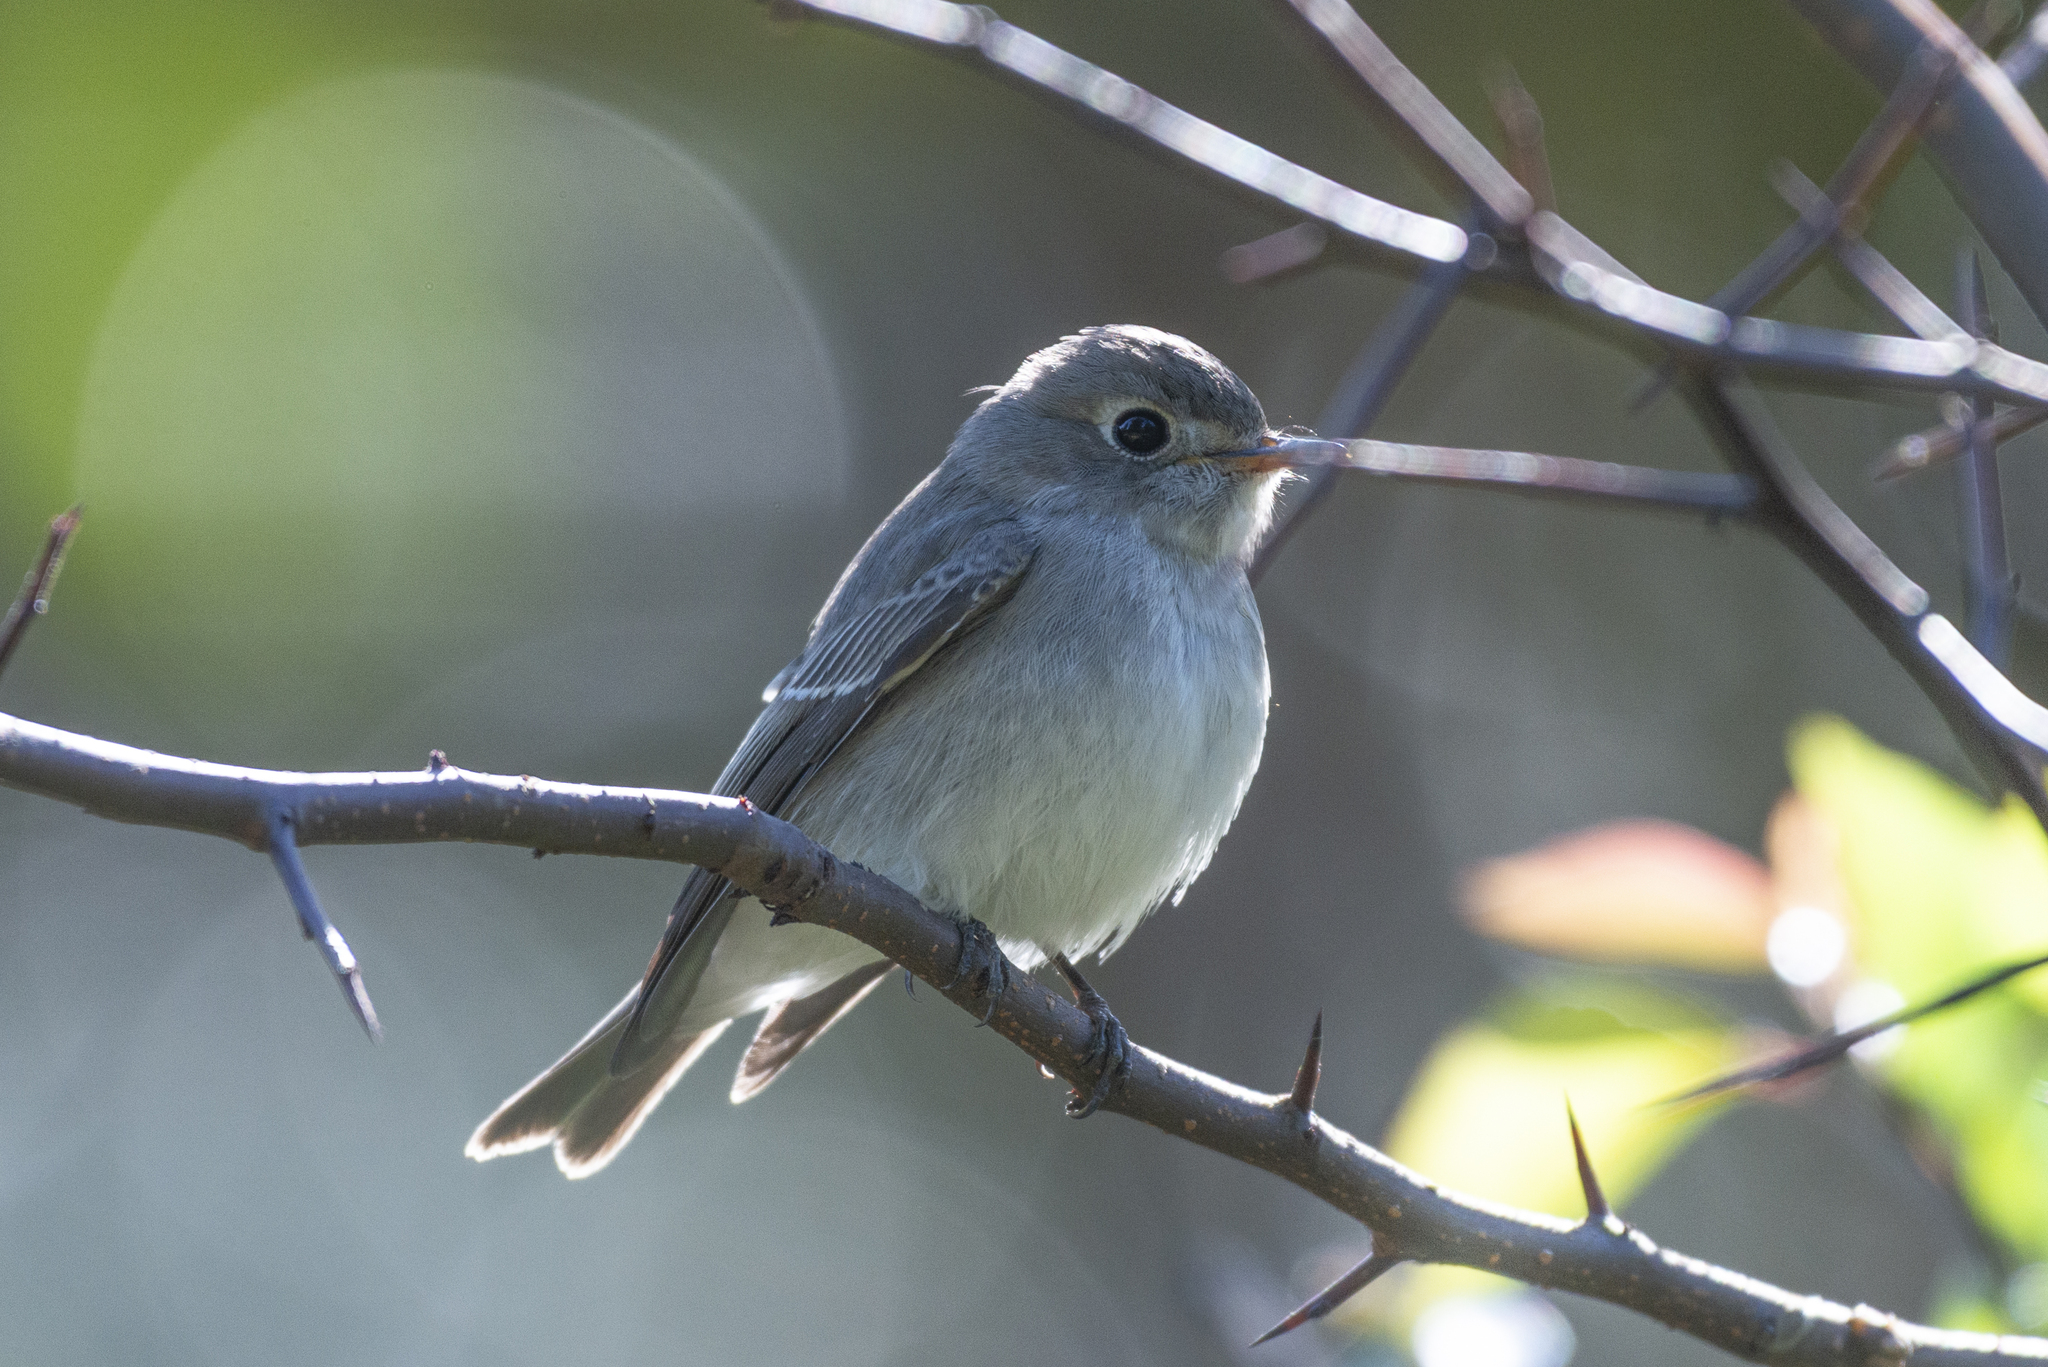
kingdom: Animalia
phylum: Chordata
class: Aves
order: Passeriformes
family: Muscicapidae
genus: Muscicapa
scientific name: Muscicapa latirostris
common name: Asian brown flycatcher
